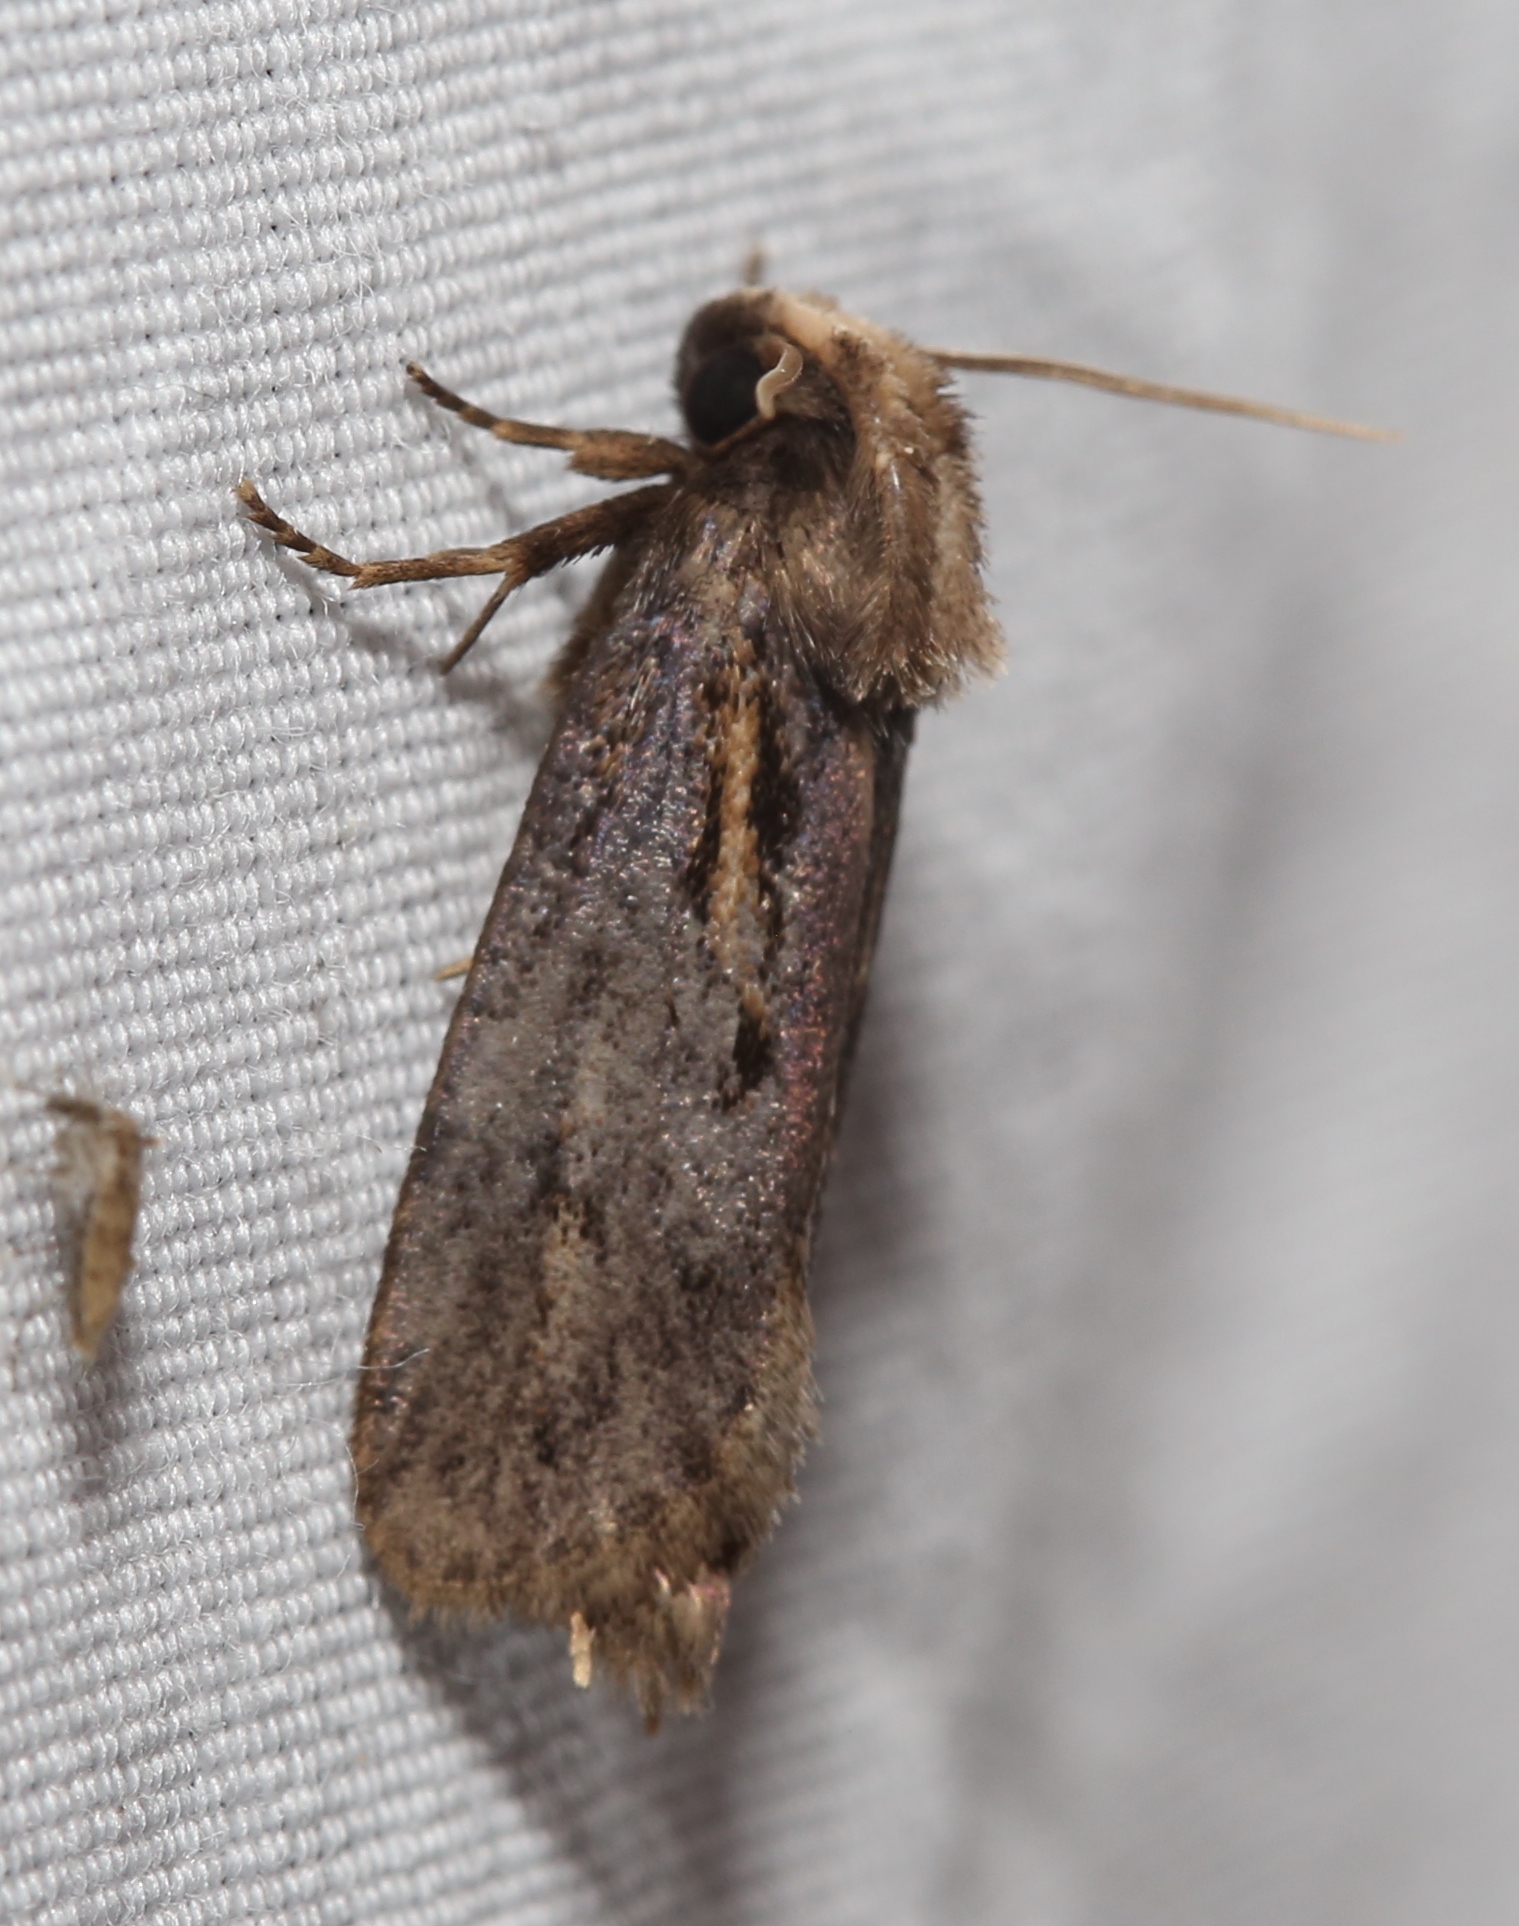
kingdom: Animalia
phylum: Arthropoda
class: Insecta
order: Lepidoptera
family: Tineidae
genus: Acrolophus
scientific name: Acrolophus popeanella
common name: Clemens' grass tubeworm moth
